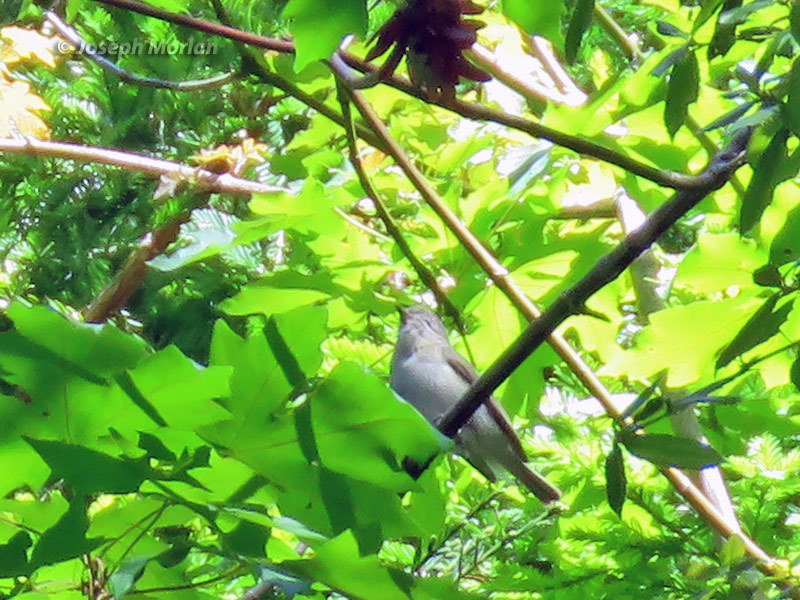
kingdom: Animalia
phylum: Chordata
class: Aves
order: Passeriformes
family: Vireonidae
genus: Vireo
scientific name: Vireo gilvus
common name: Warbling vireo
